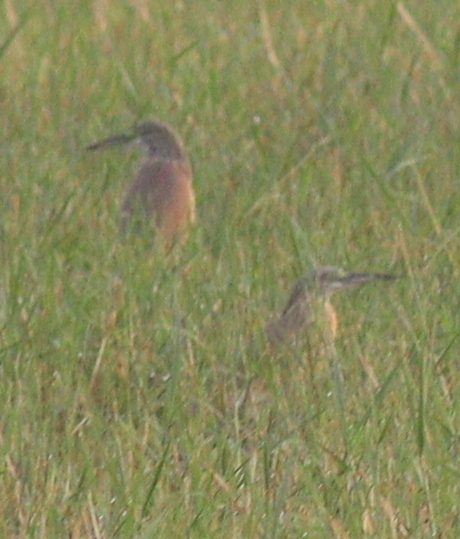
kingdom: Animalia
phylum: Chordata
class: Aves
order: Pelecaniformes
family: Ardeidae
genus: Ardeola
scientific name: Ardeola ralloides
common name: Squacco heron
